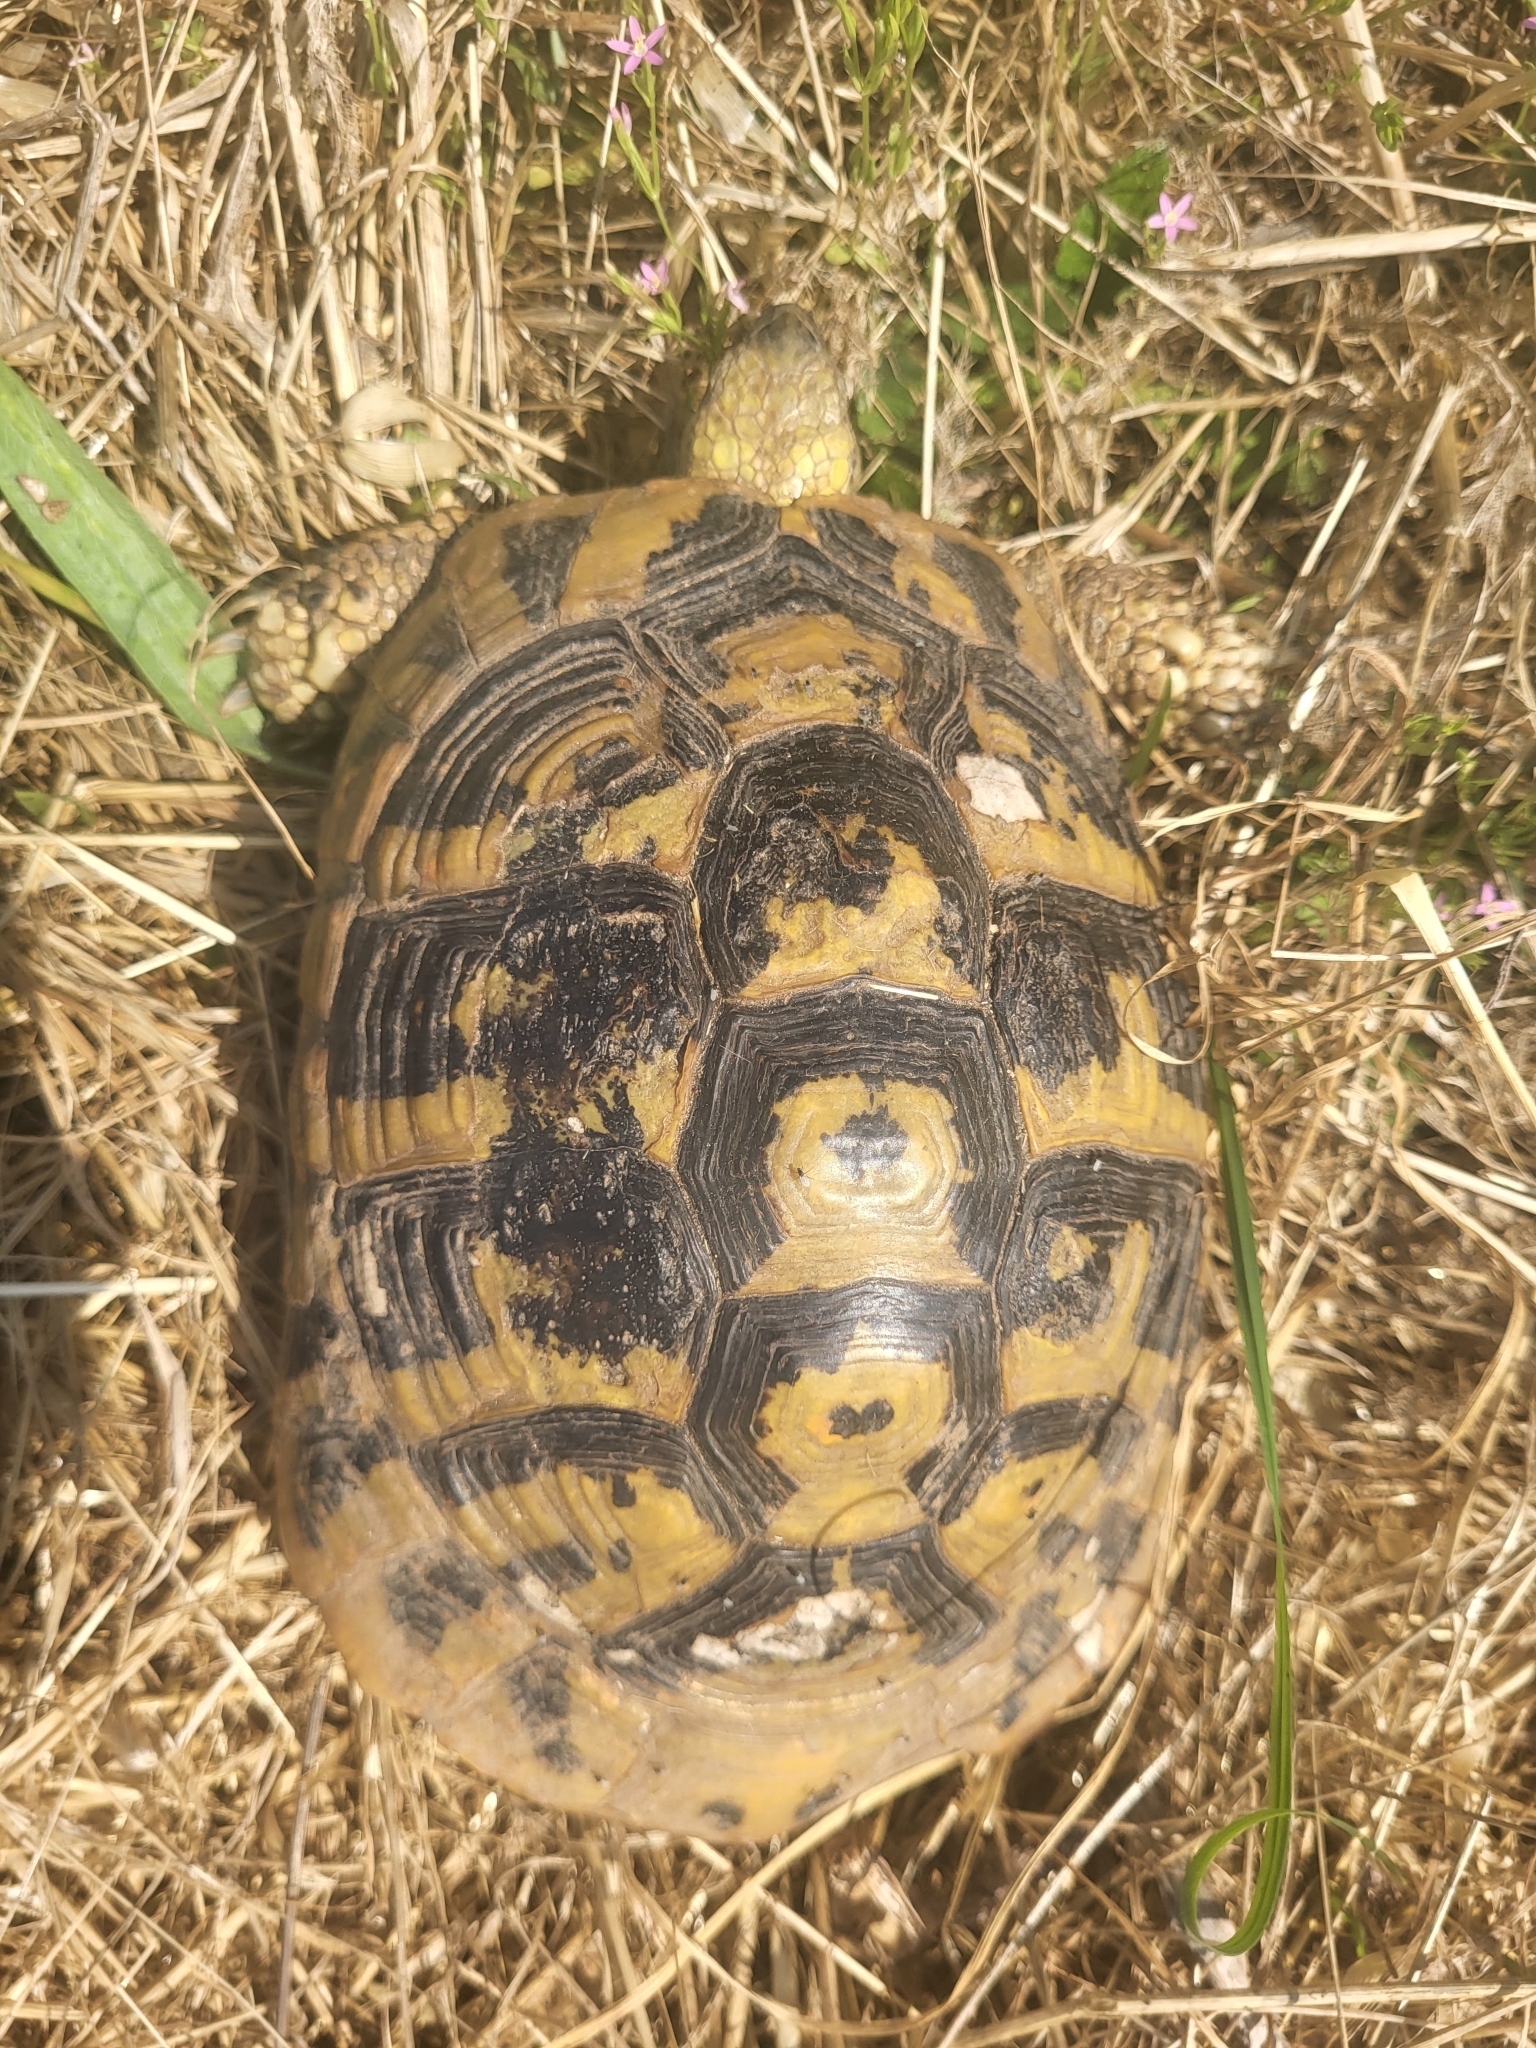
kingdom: Animalia
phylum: Chordata
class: Testudines
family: Testudinidae
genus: Testudo
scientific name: Testudo hermanni
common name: Hermann's tortoise
